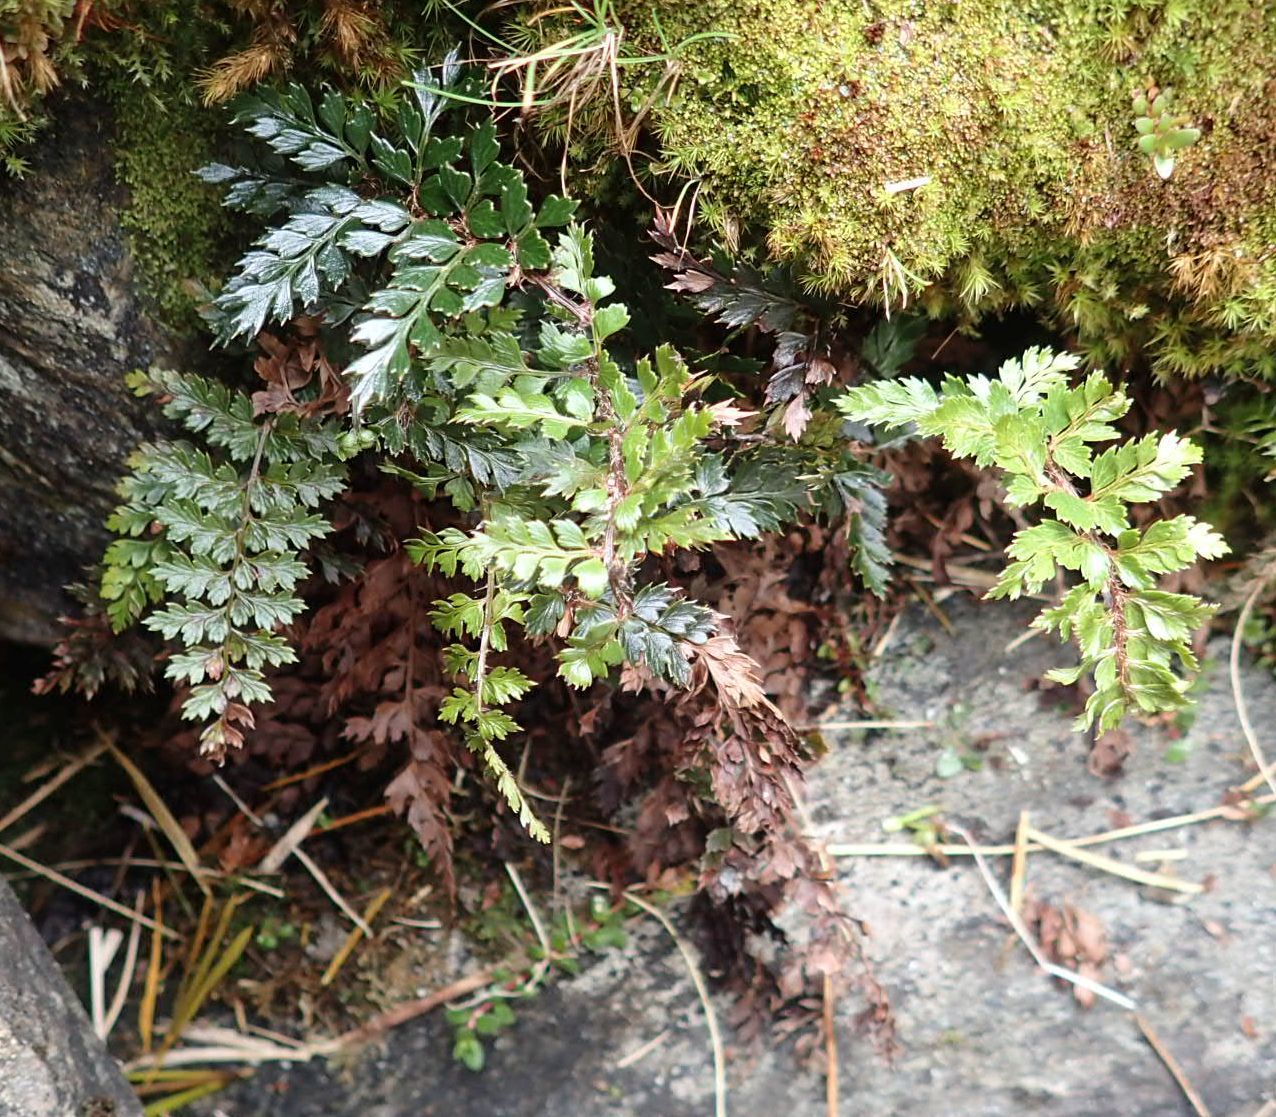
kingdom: Plantae
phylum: Tracheophyta
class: Polypodiopsida
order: Polypodiales
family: Dryopteridaceae
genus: Polystichum
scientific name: Polystichum vestitum
